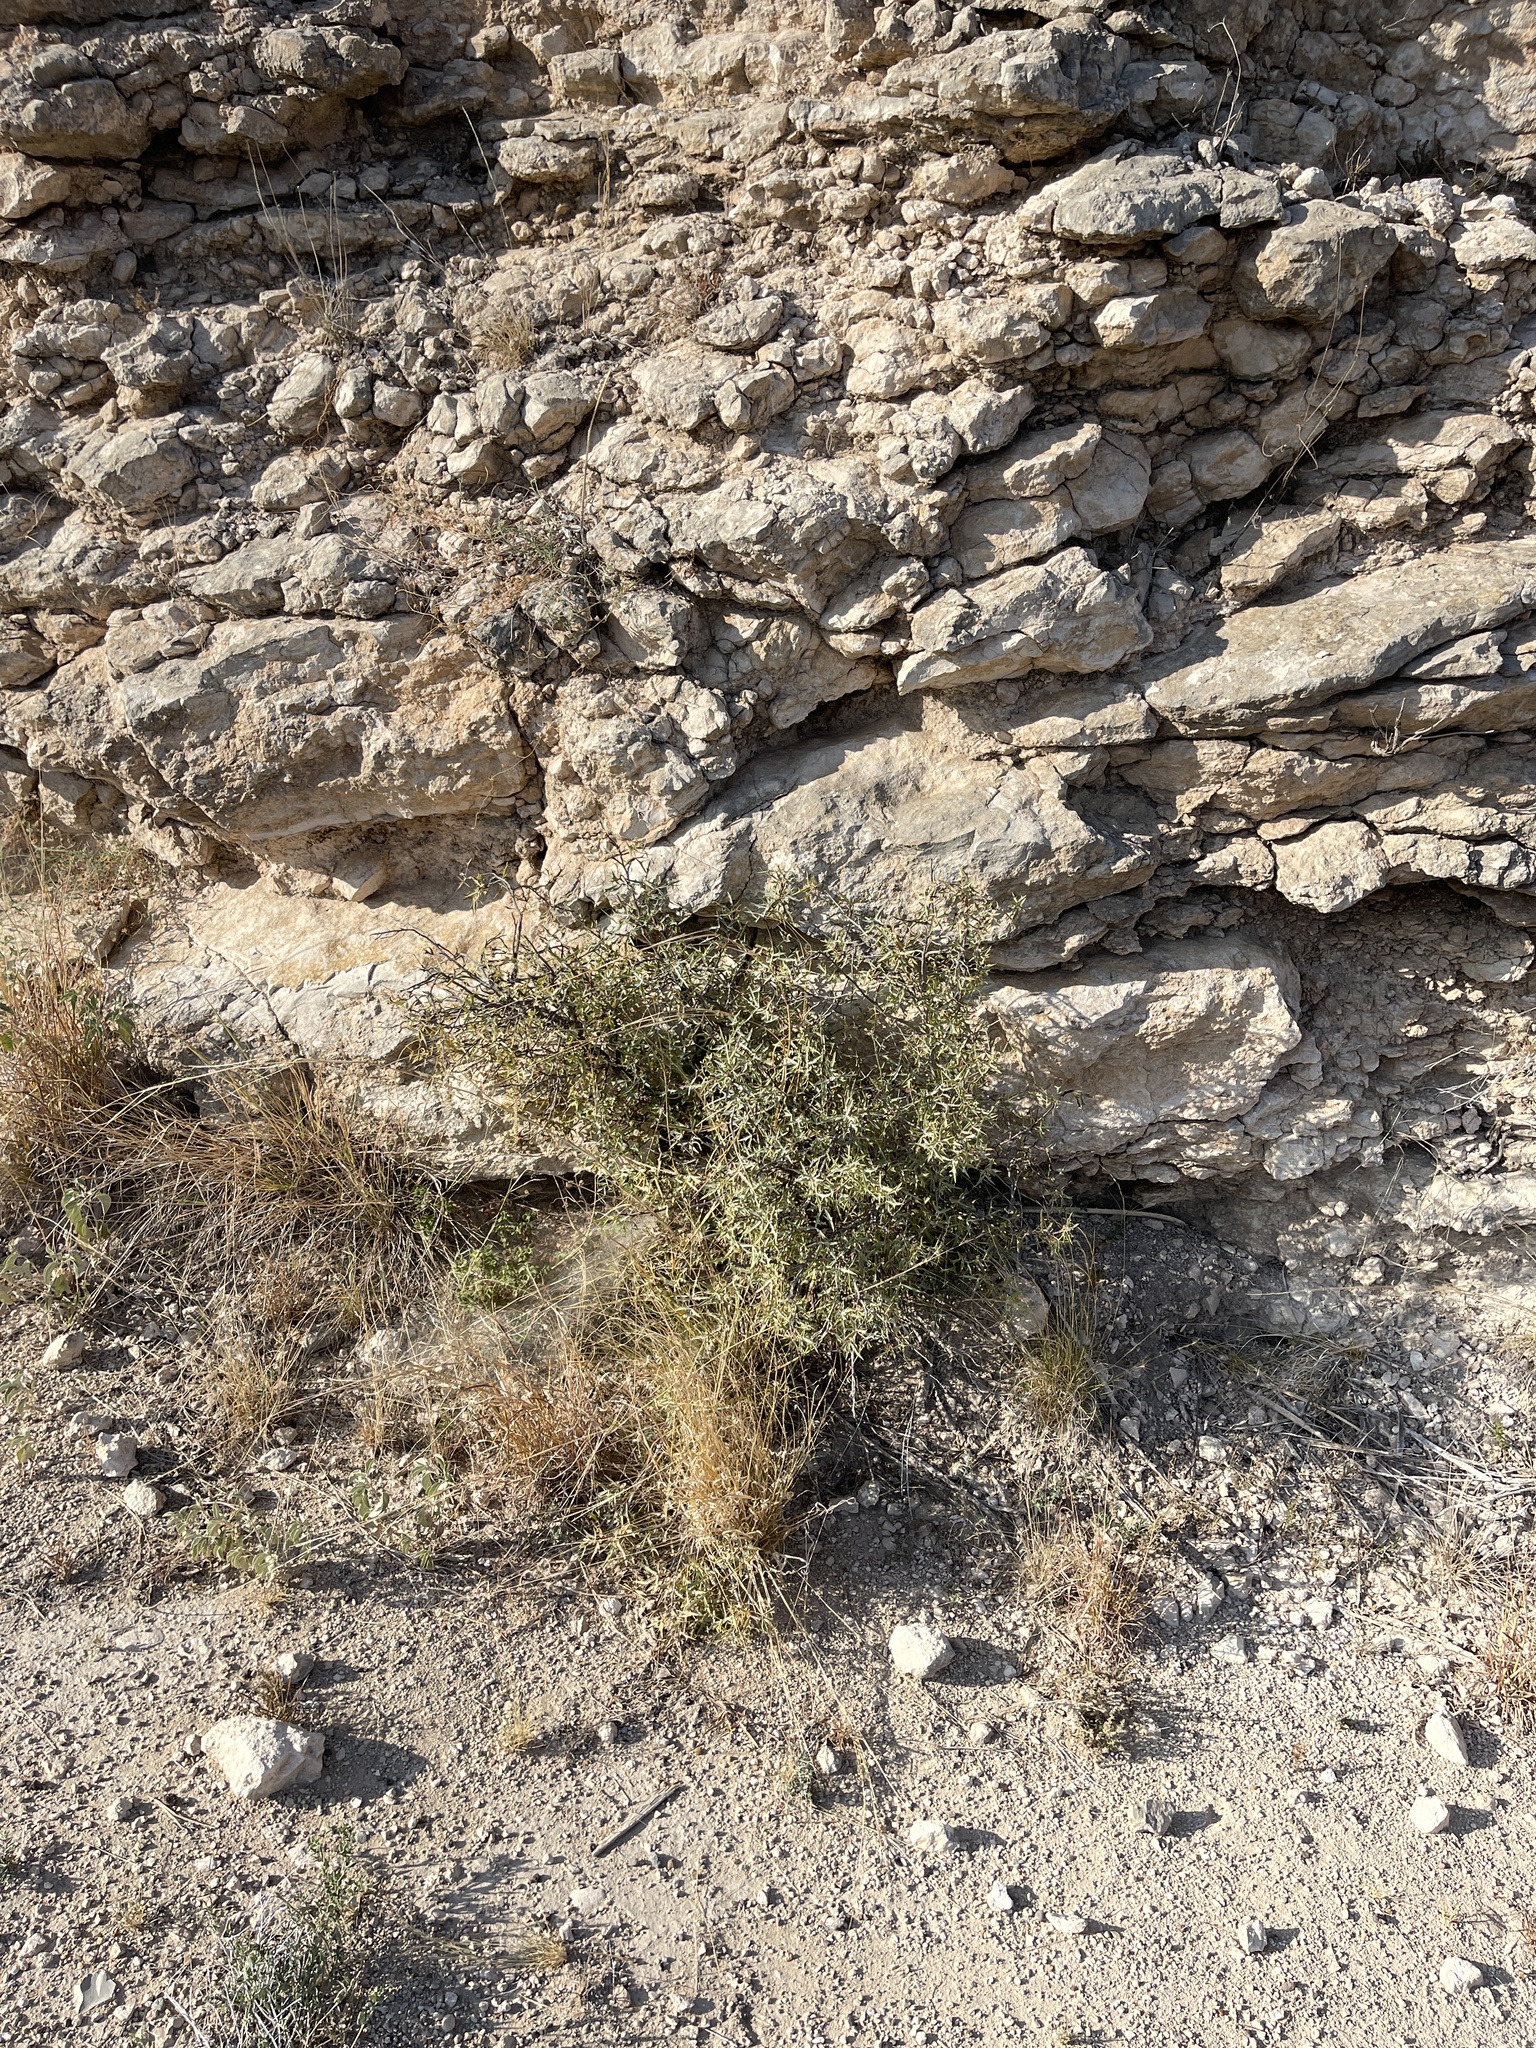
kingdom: Plantae
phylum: Tracheophyta
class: Magnoliopsida
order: Ranunculales
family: Berberidaceae
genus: Alloberberis
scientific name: Alloberberis trifoliolata
